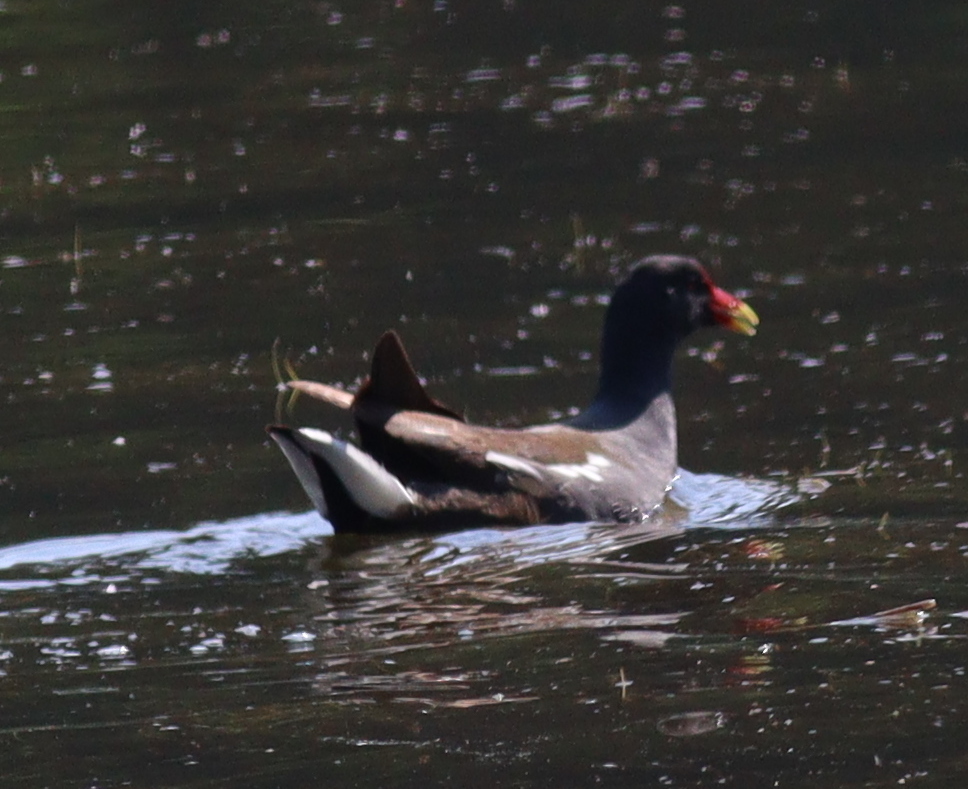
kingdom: Animalia
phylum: Chordata
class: Aves
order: Gruiformes
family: Rallidae
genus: Gallinula
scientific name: Gallinula chloropus
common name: Common moorhen
